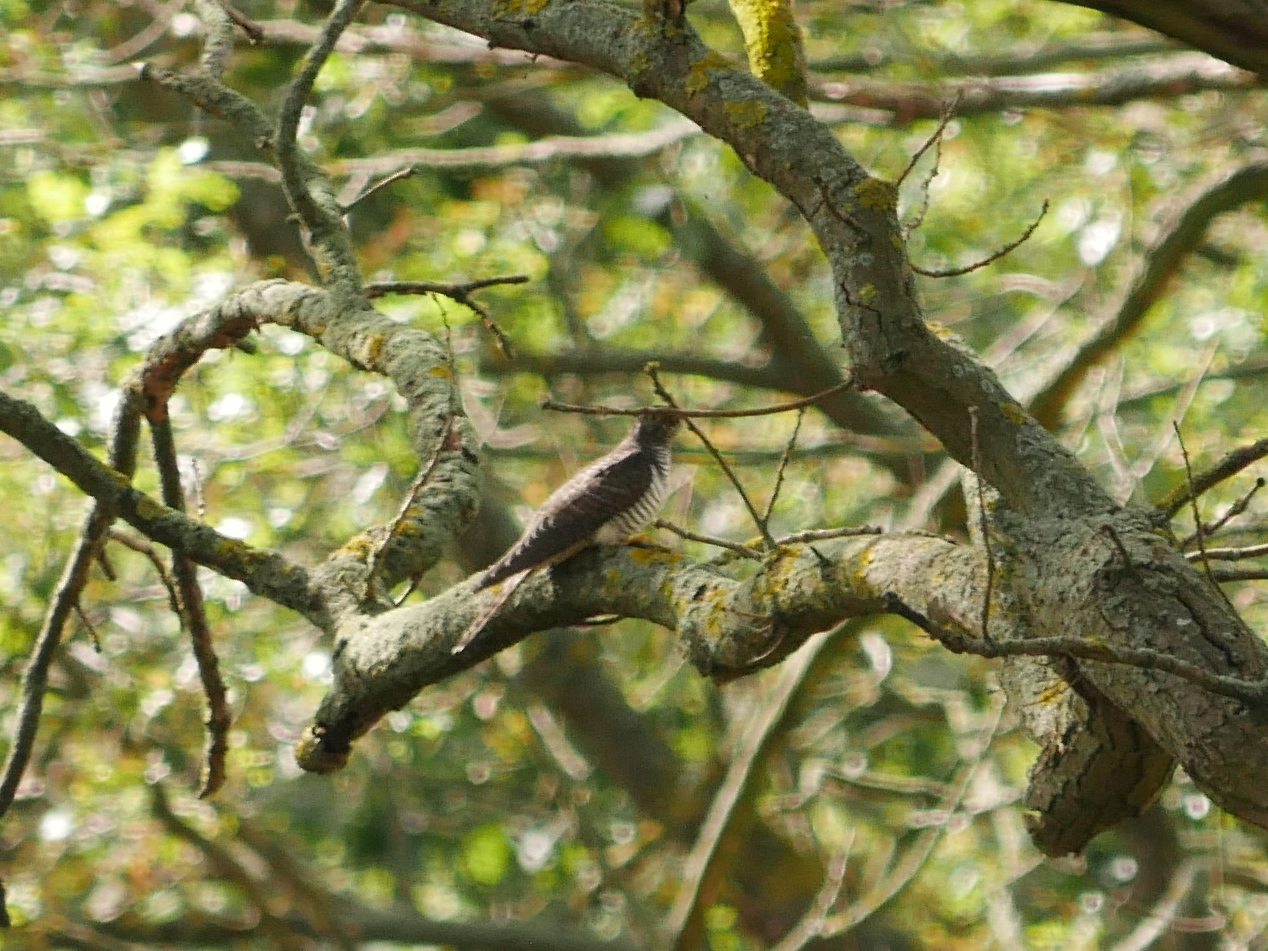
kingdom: Animalia
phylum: Chordata
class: Aves
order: Cuculiformes
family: Cuculidae
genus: Cuculus
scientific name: Cuculus canorus
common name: Common cuckoo
